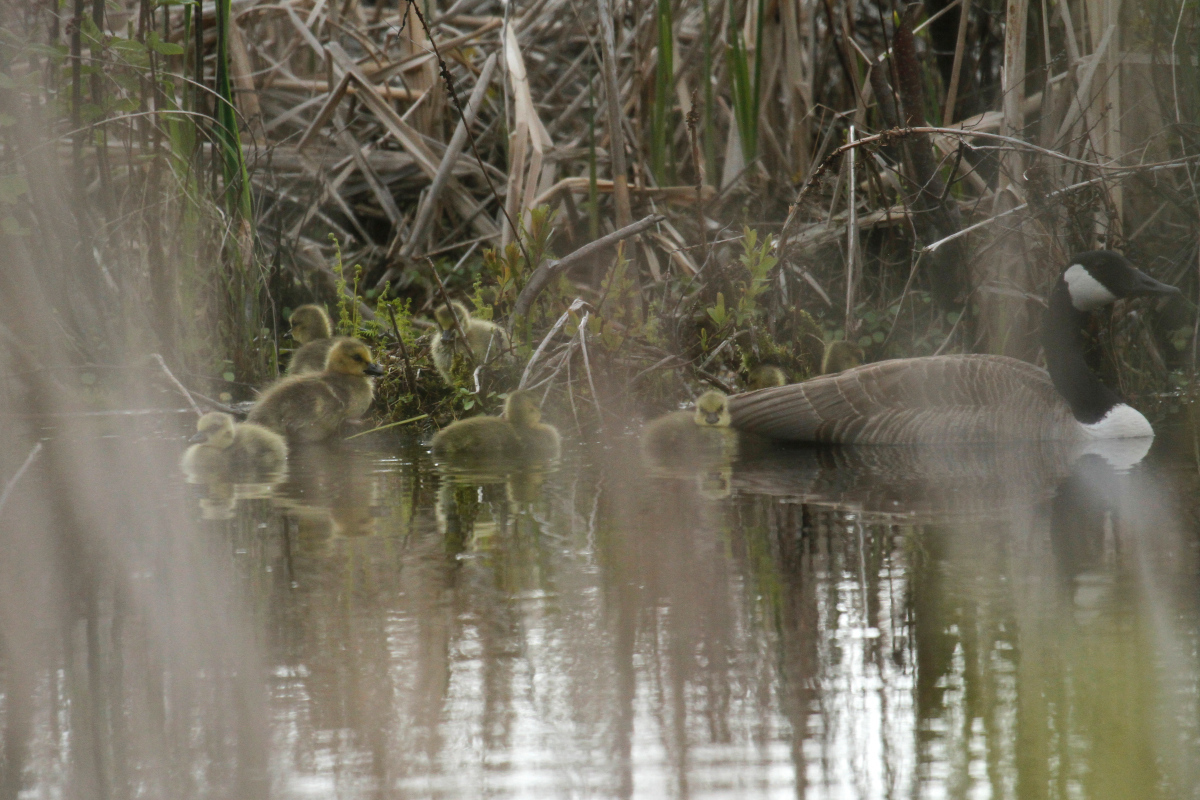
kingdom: Animalia
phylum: Chordata
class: Aves
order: Anseriformes
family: Anatidae
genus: Branta
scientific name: Branta canadensis
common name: Canada goose
